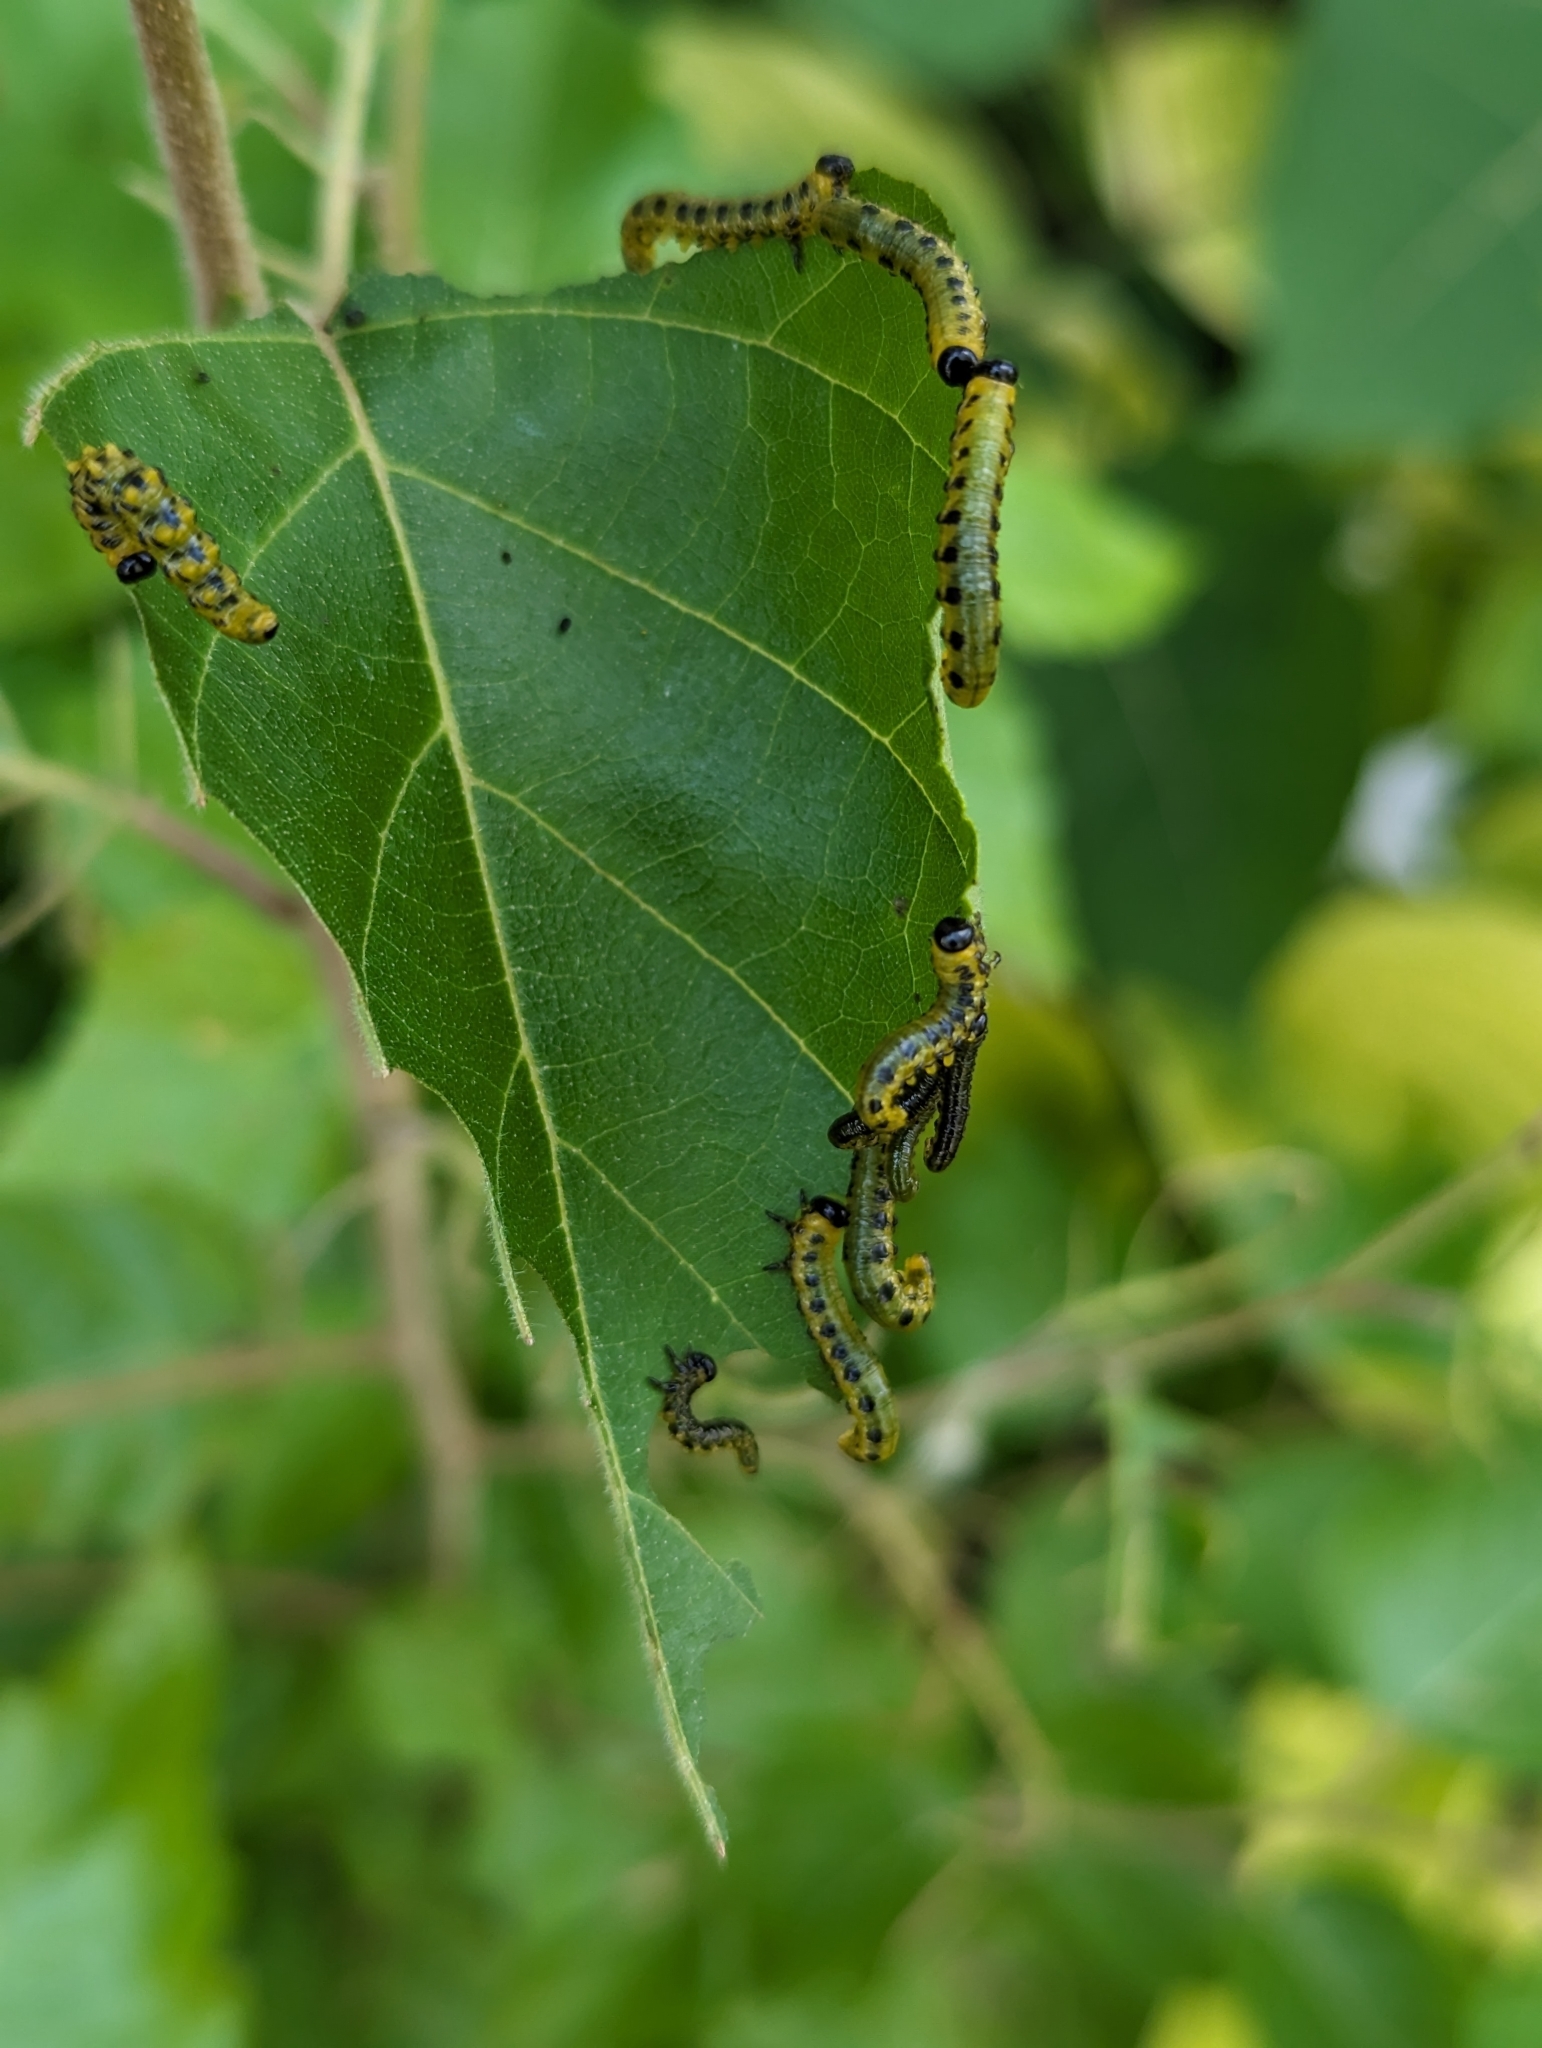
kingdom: Animalia
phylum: Arthropoda
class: Insecta
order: Hymenoptera
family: Tenthredinidae
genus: Nematus
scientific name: Nematus
